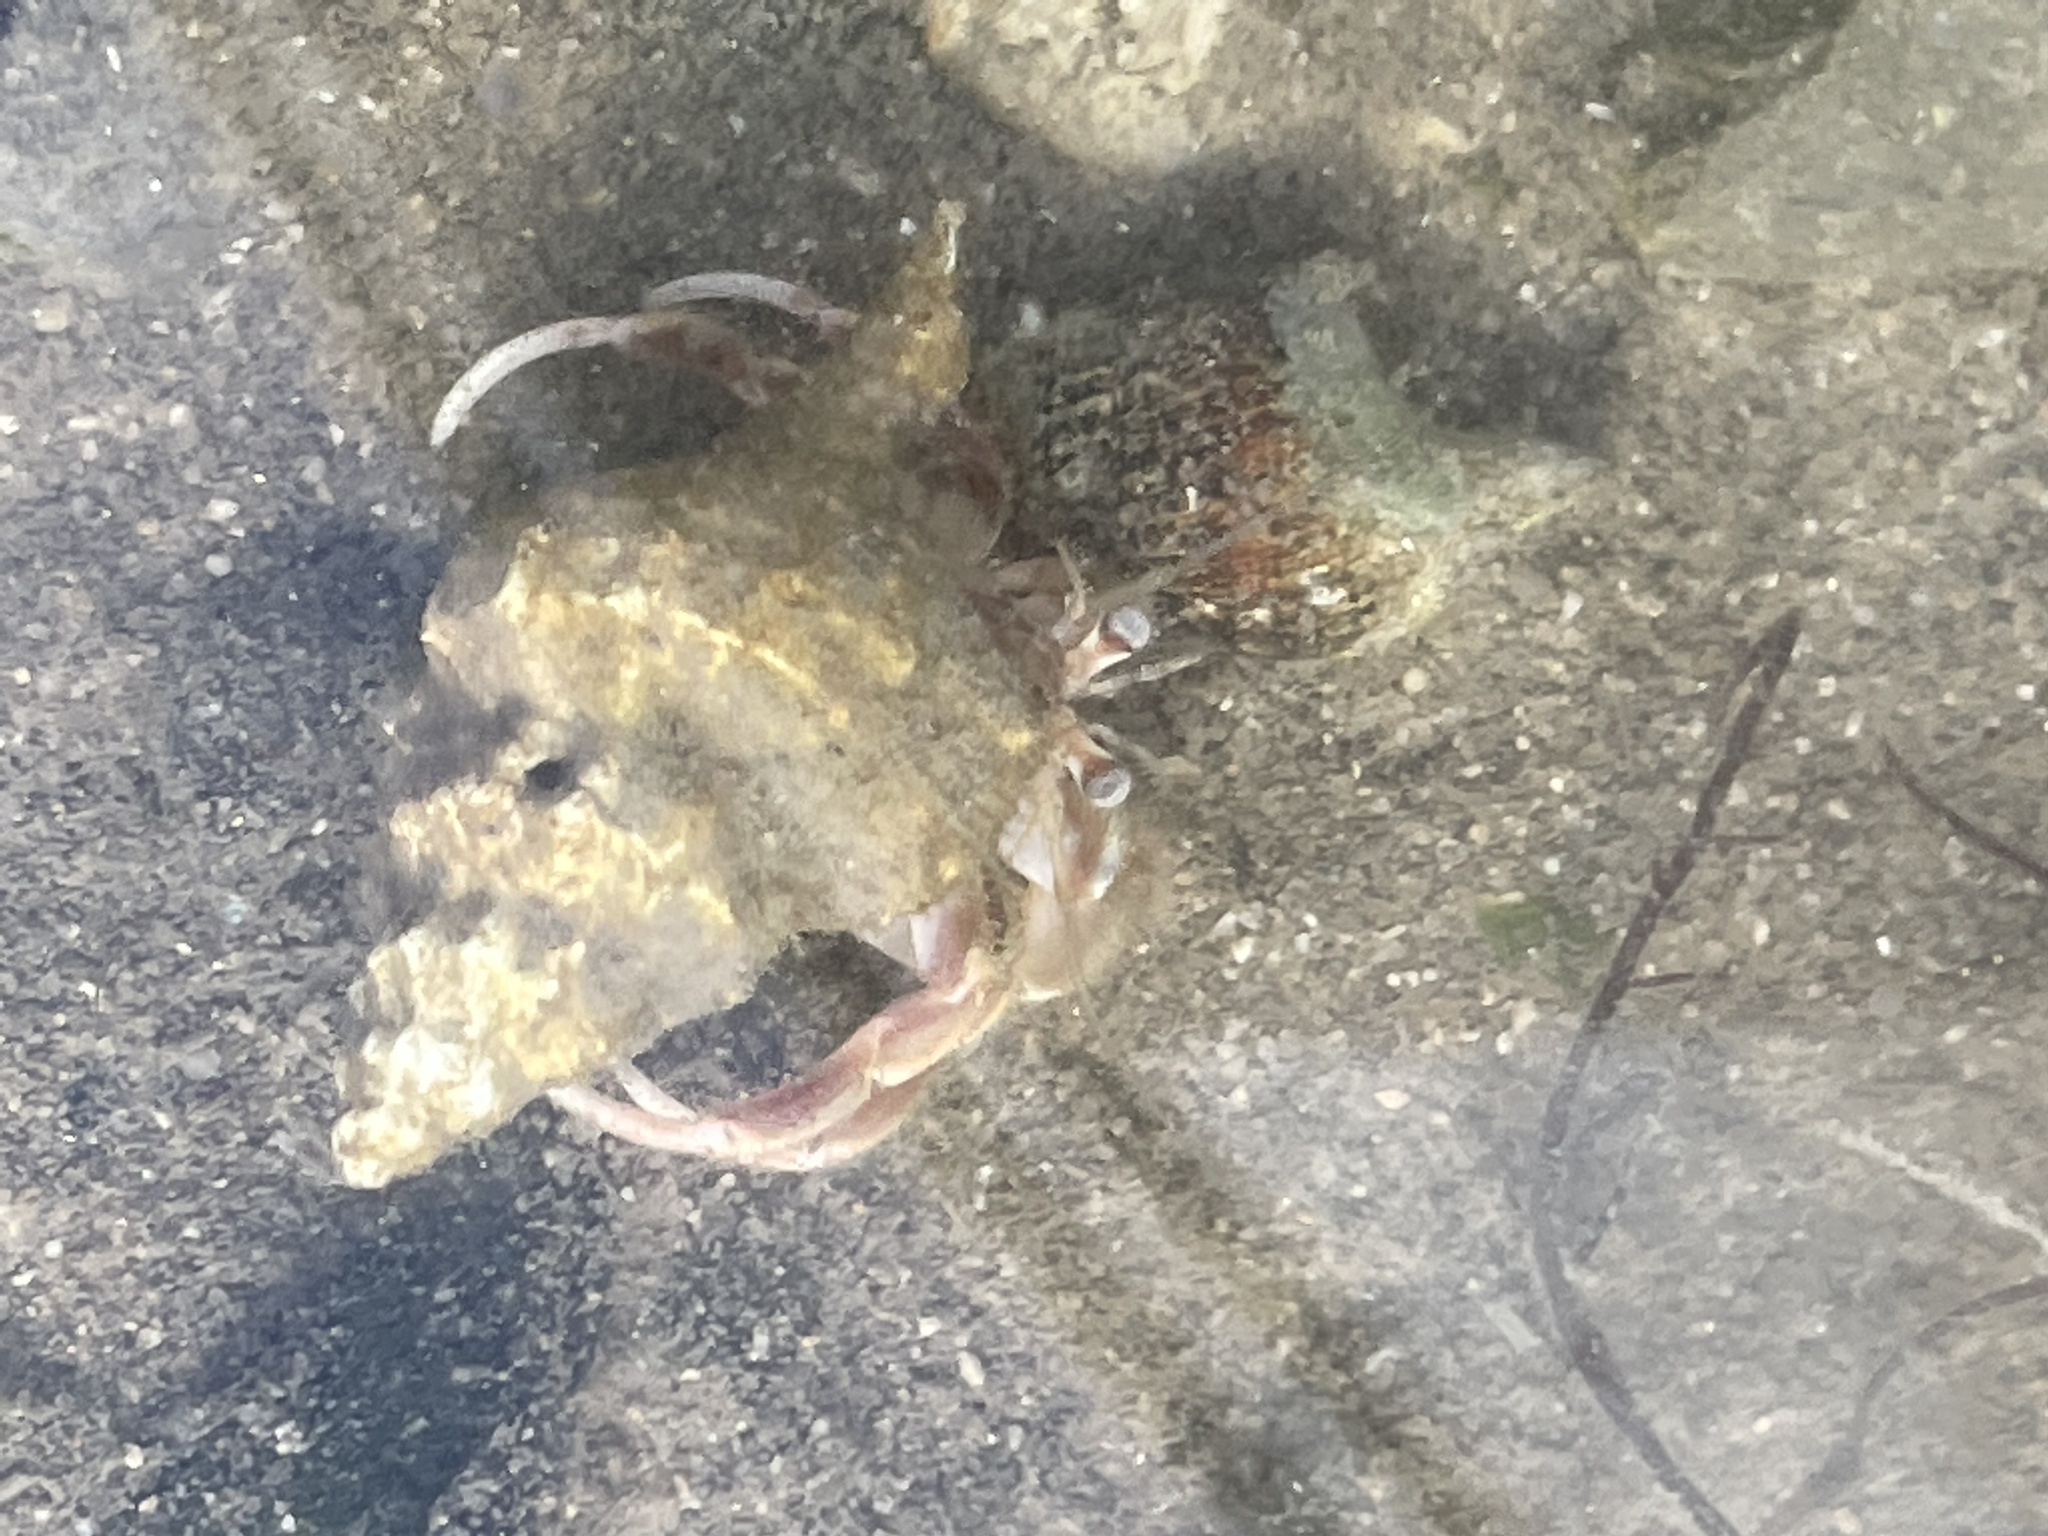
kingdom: Animalia
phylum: Arthropoda
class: Malacostraca
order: Decapoda
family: Paguridae
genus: Pagurus
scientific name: Pagurus longicarpus
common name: Long-armed hermit crab
